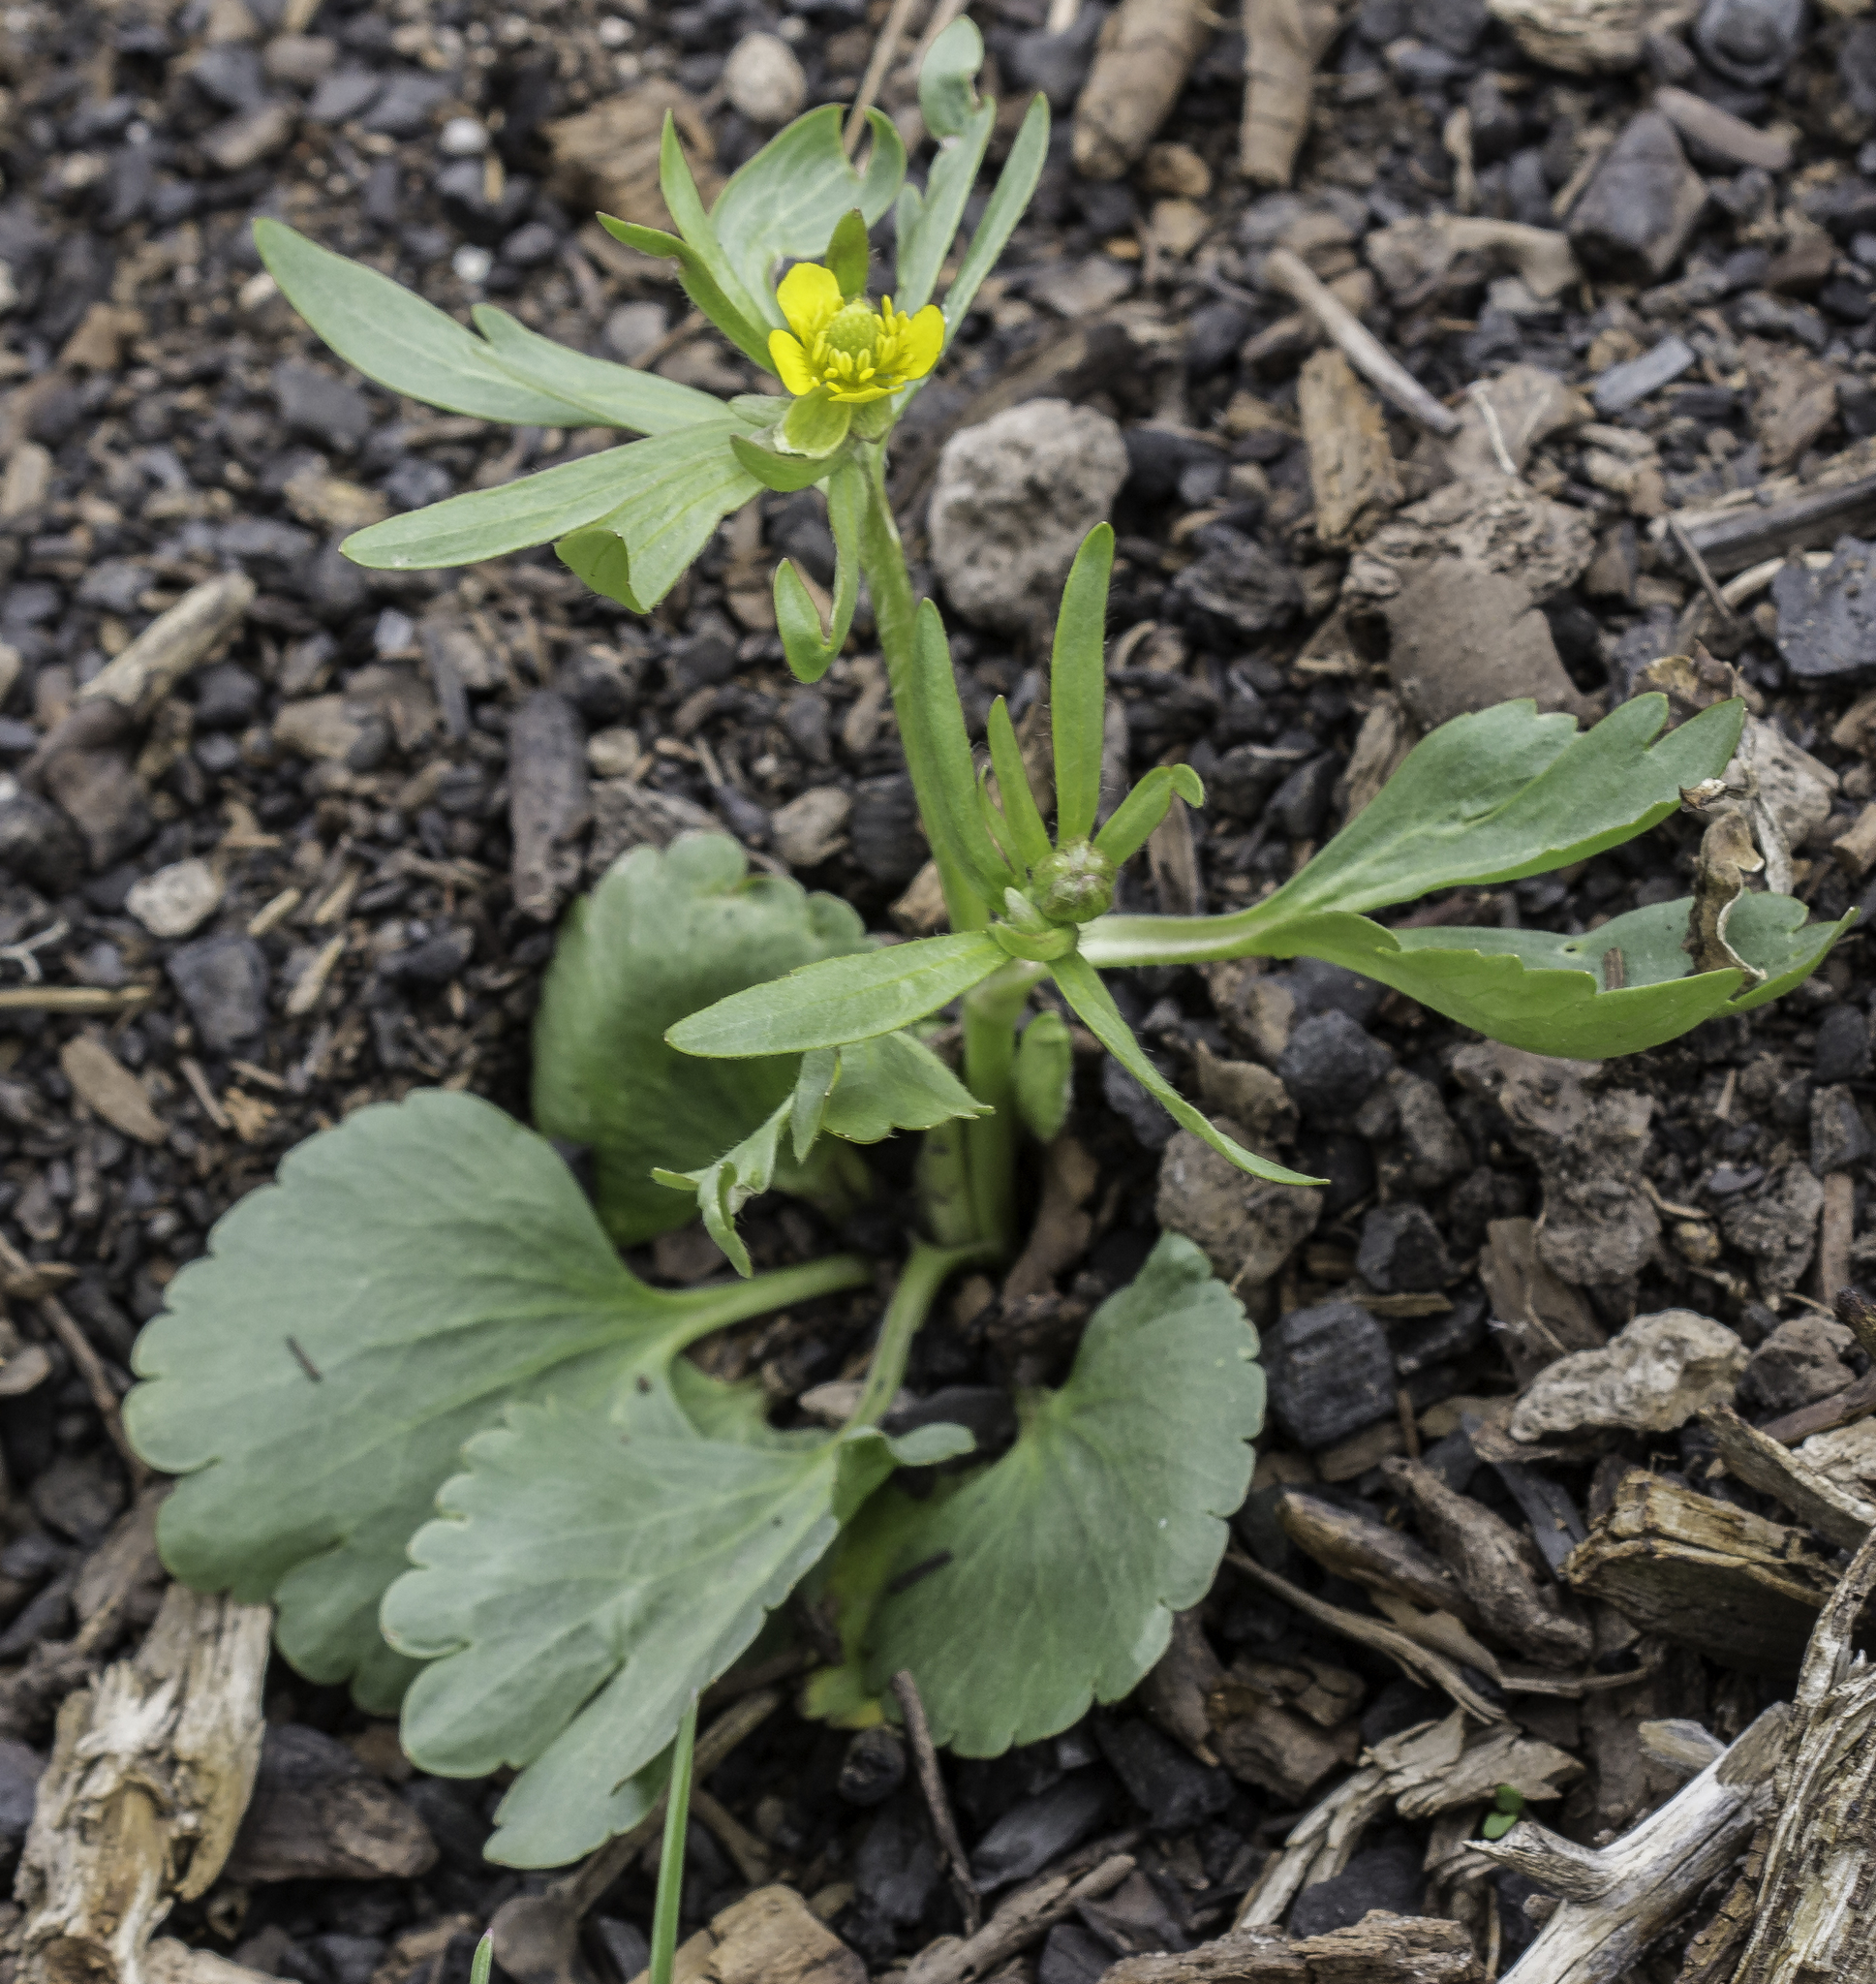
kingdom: Plantae
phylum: Tracheophyta
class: Magnoliopsida
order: Ranunculales
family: Ranunculaceae
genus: Ranunculus
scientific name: Ranunculus inamoenus
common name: Graceful buttercup
